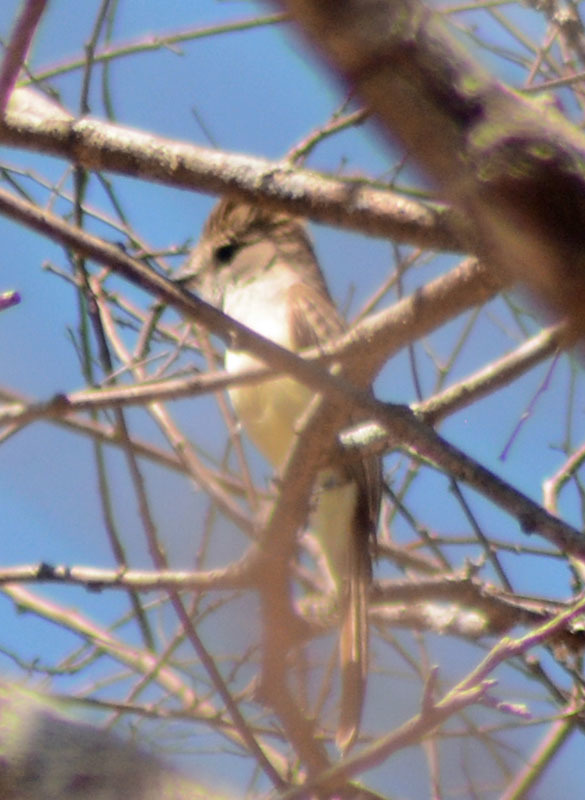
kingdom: Animalia
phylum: Chordata
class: Aves
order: Passeriformes
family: Tyrannidae
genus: Myiarchus
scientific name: Myiarchus cinerascens
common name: Ash-throated flycatcher
